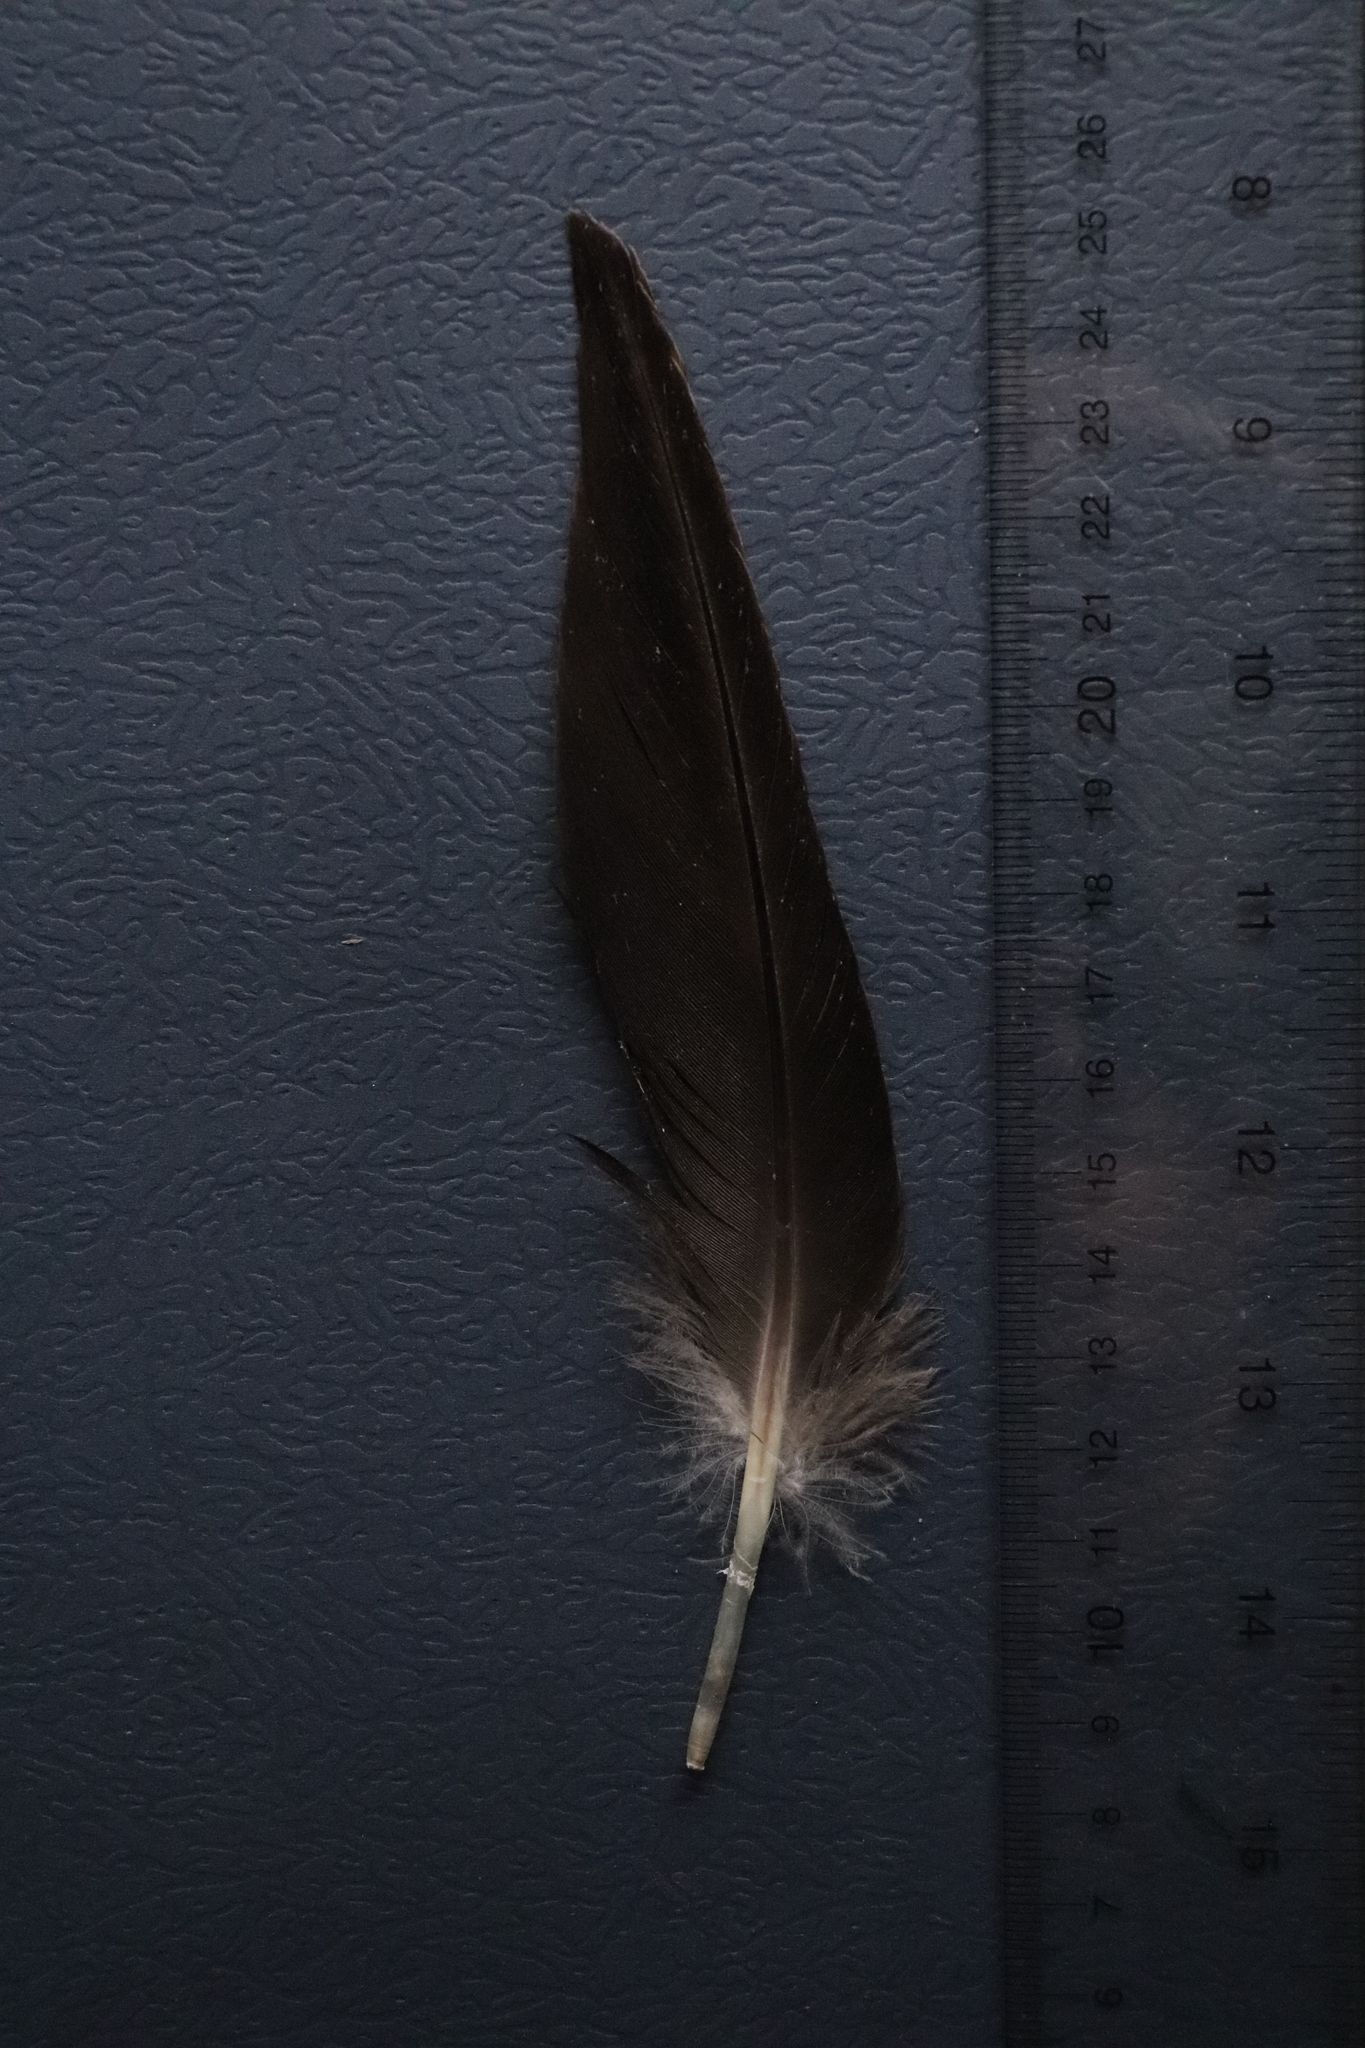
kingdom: Animalia
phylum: Chordata
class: Aves
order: Anseriformes
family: Anatidae
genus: Branta
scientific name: Branta canadensis
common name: Canada goose
